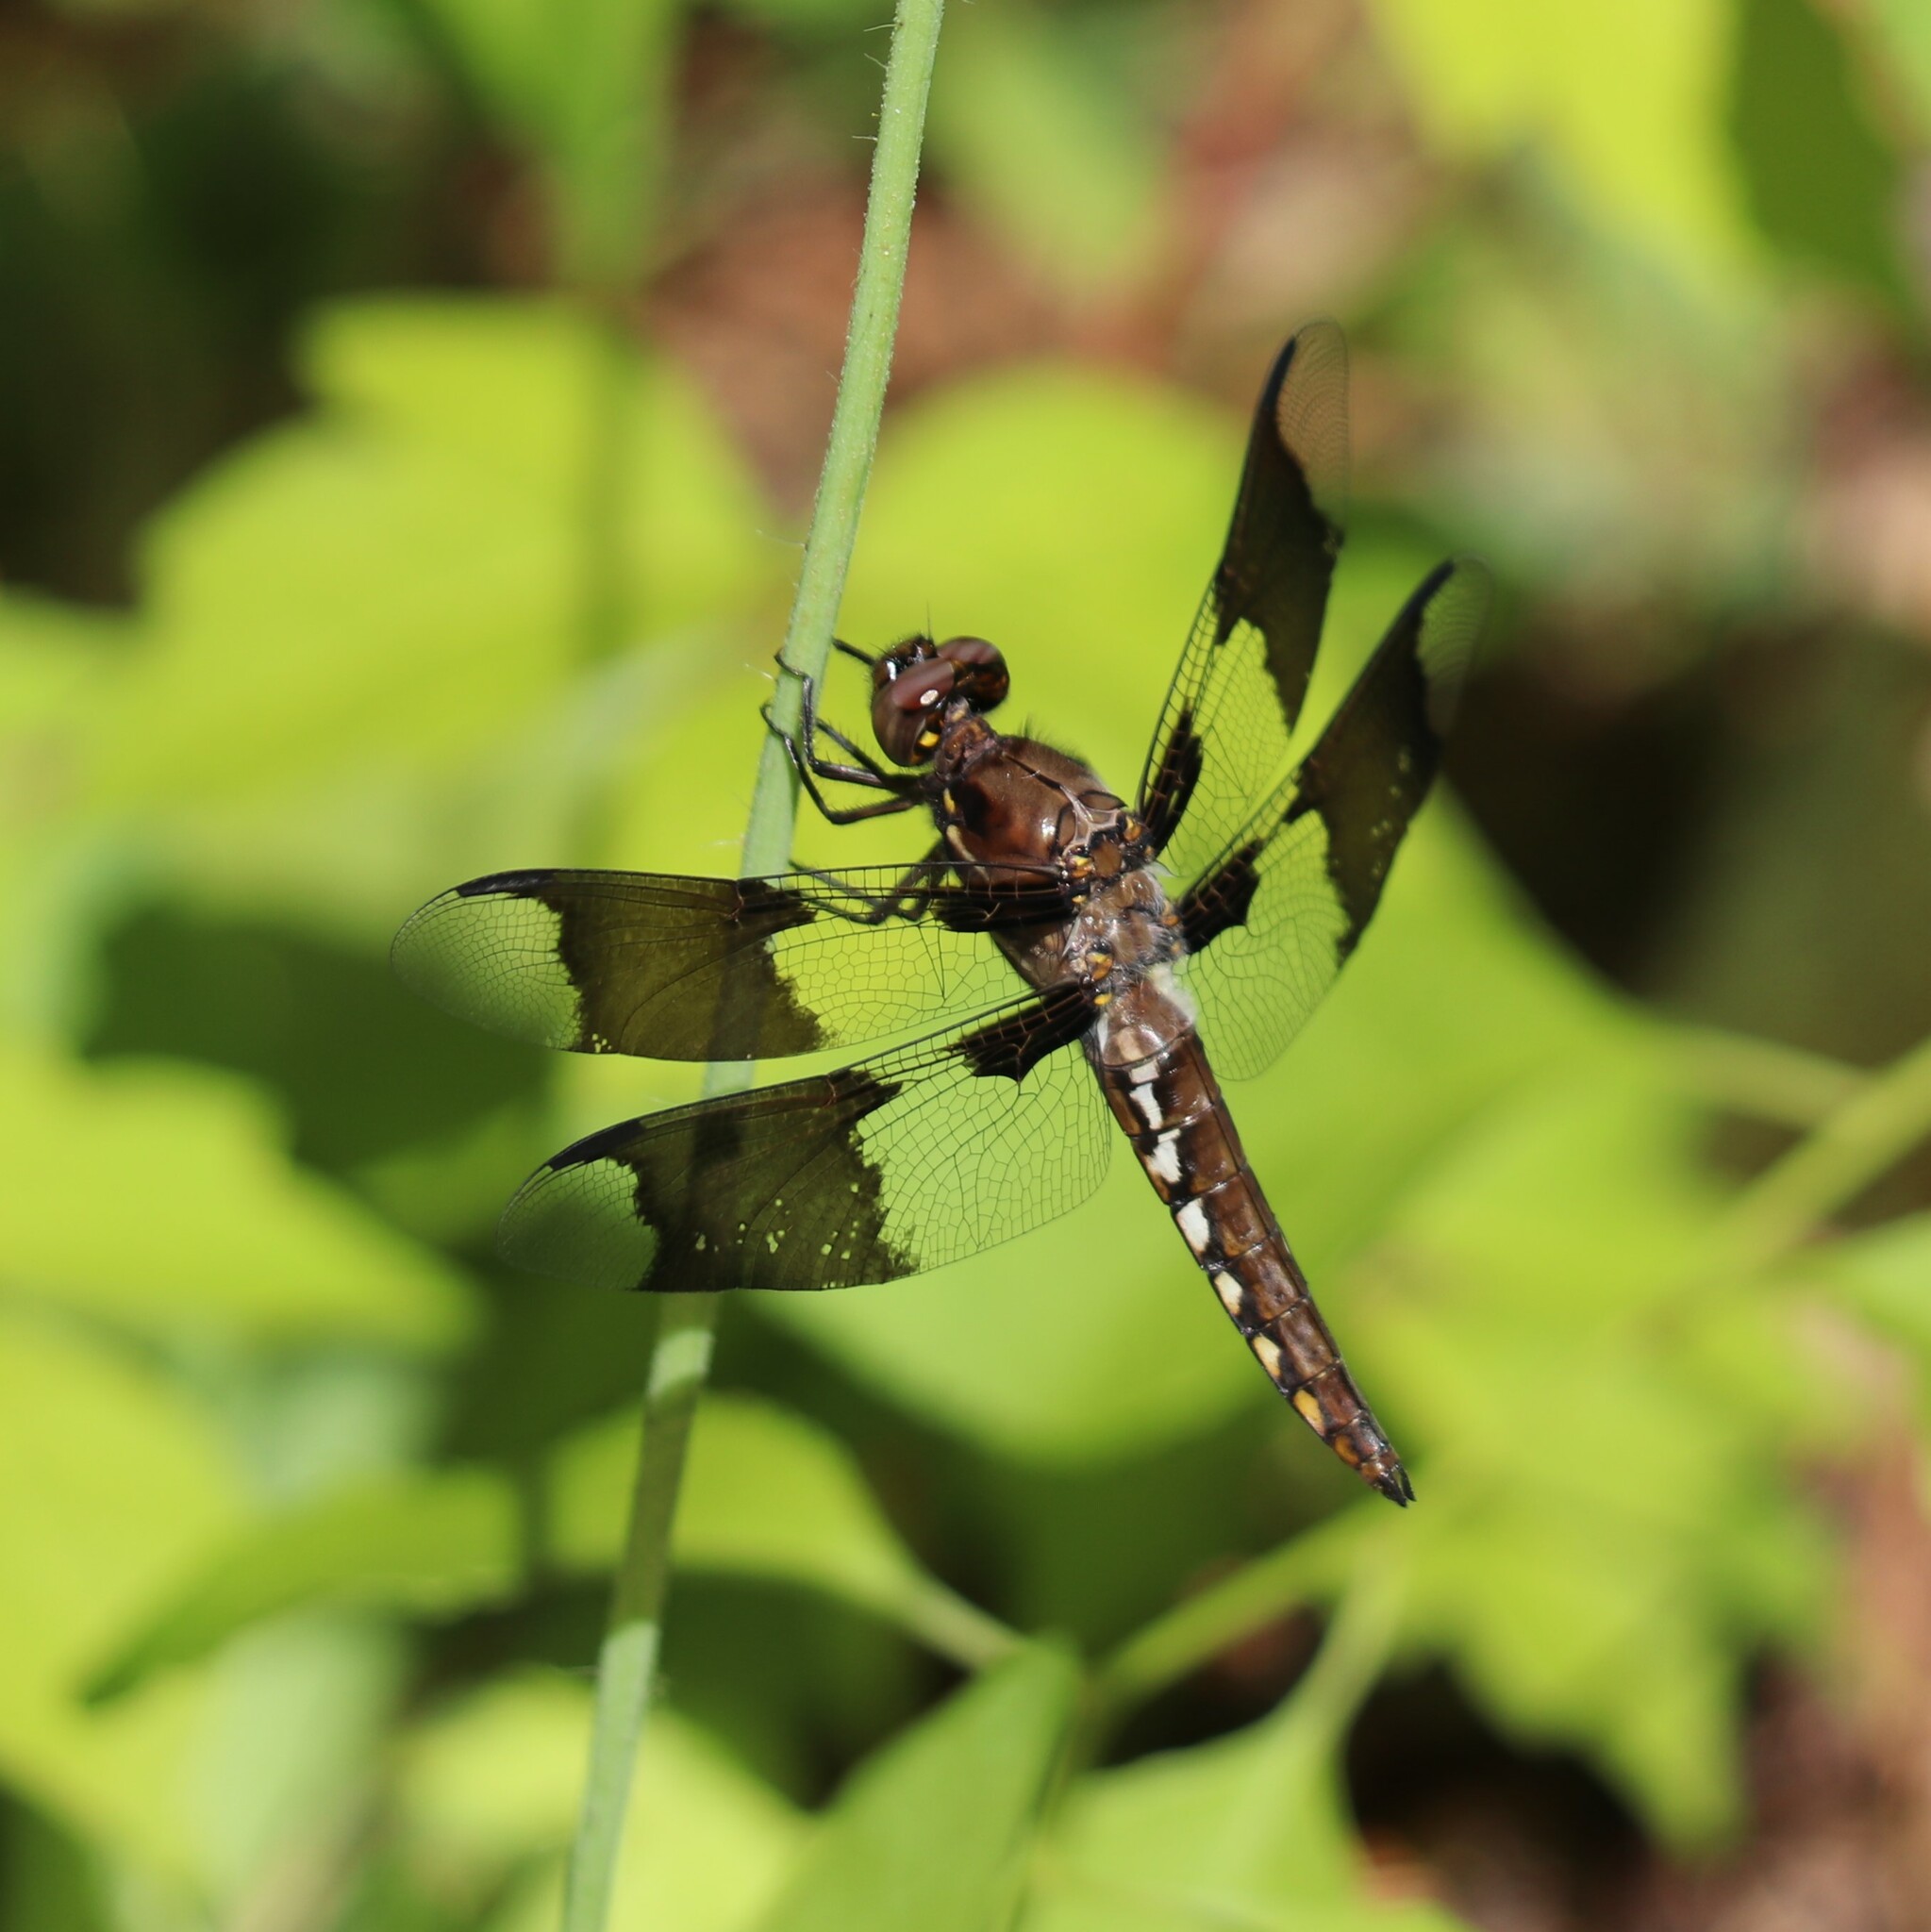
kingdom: Animalia
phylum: Arthropoda
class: Insecta
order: Odonata
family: Libellulidae
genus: Plathemis
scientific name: Plathemis lydia
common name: Common whitetail
